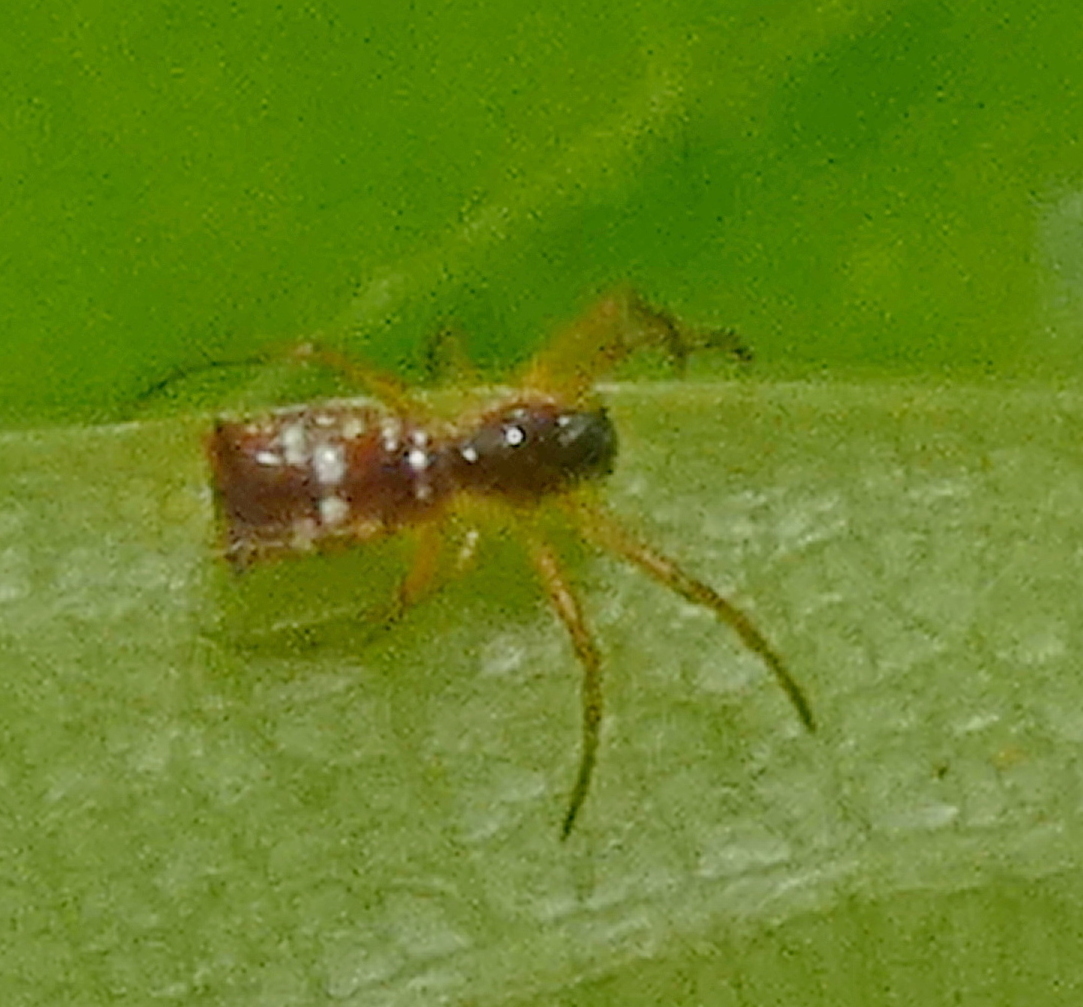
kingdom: Animalia
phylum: Arthropoda
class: Arachnida
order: Araneae
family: Araneidae
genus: Micrathena
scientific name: Micrathena fissispina
